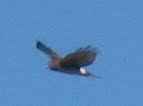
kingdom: Animalia
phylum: Chordata
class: Aves
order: Accipitriformes
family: Accipitridae
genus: Circus
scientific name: Circus cyaneus
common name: Hen harrier
